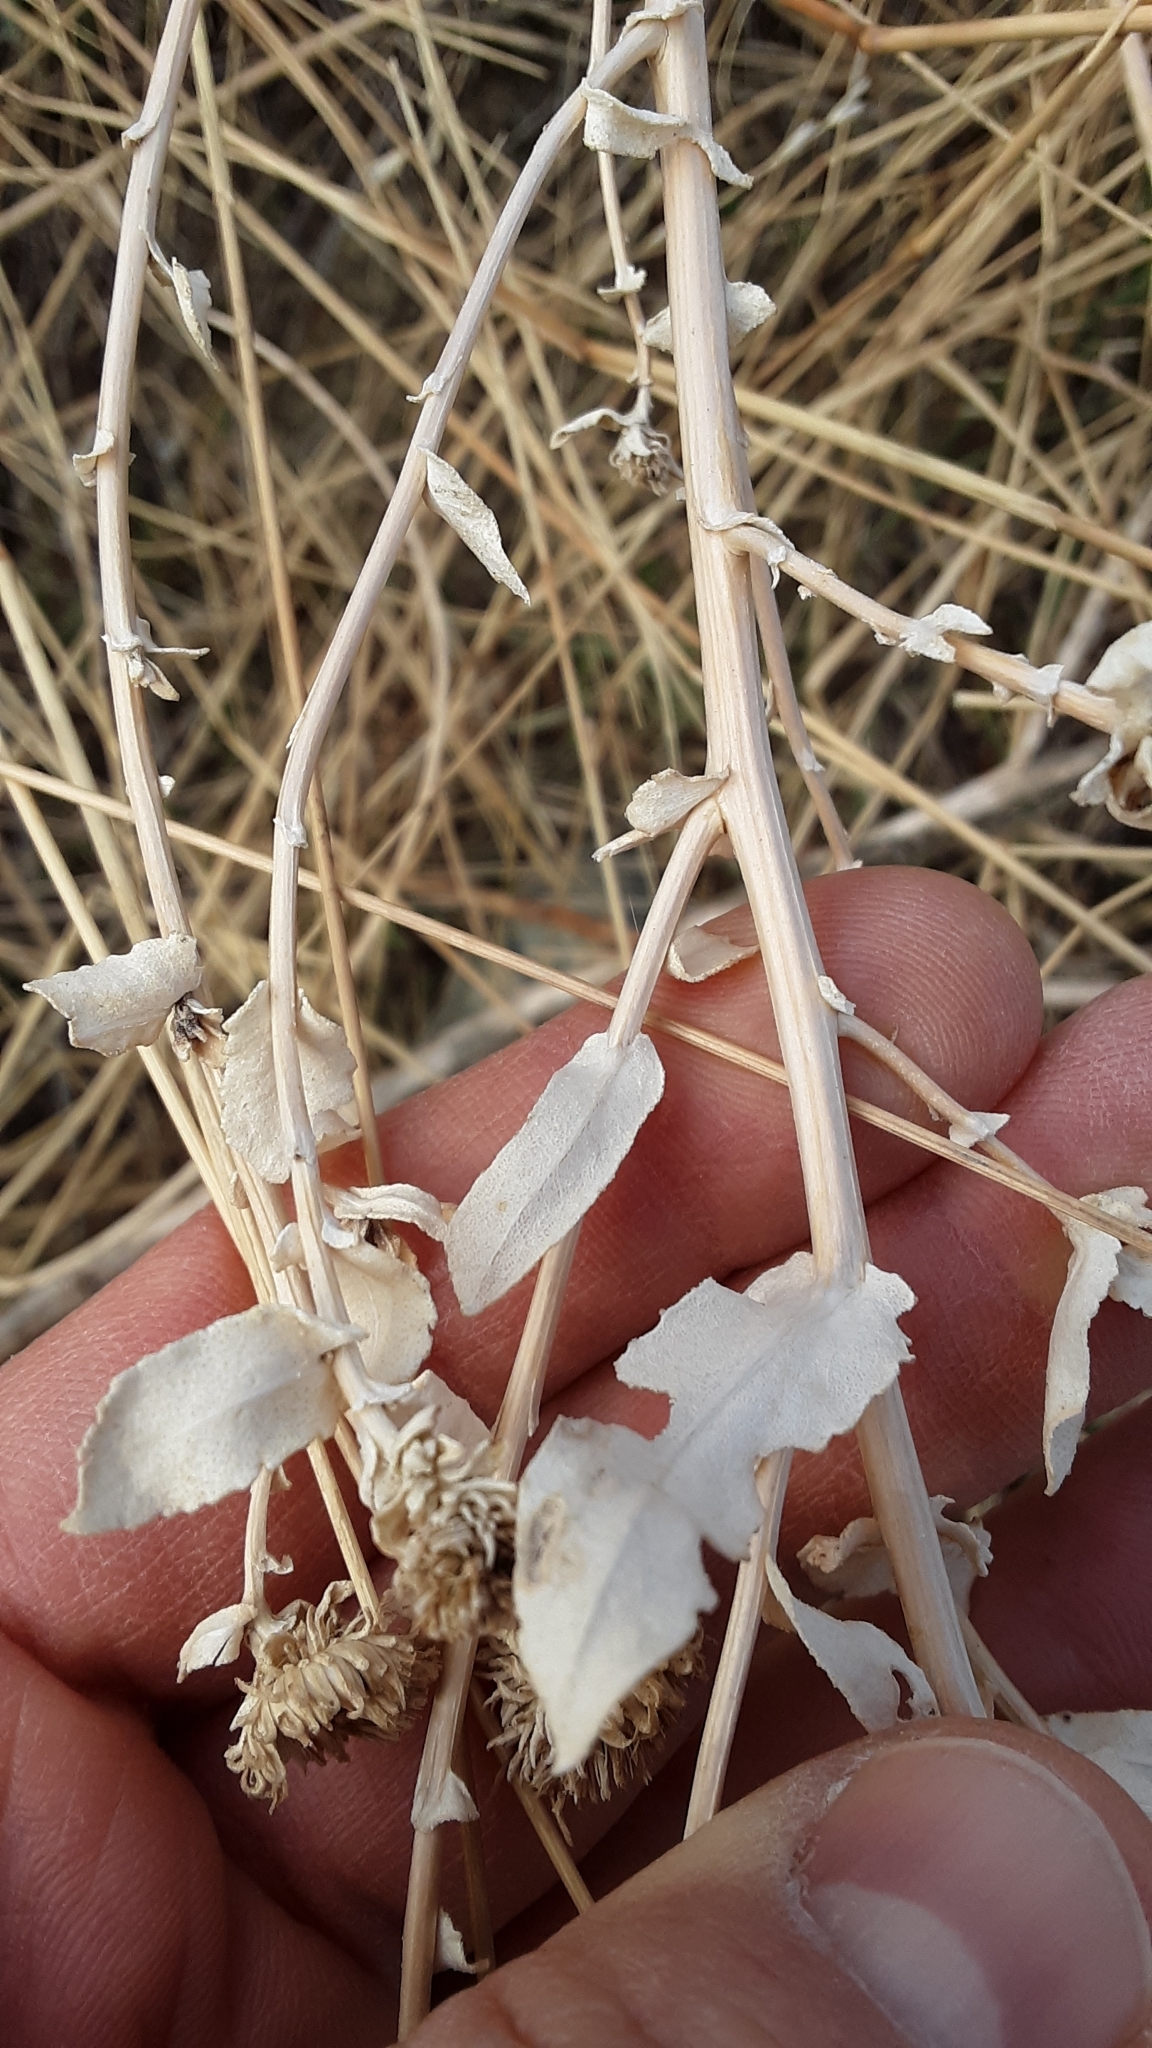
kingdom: Plantae
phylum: Tracheophyta
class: Magnoliopsida
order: Asterales
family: Asteraceae
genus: Grindelia
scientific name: Grindelia squarrosa
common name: Curly-cup gumweed
